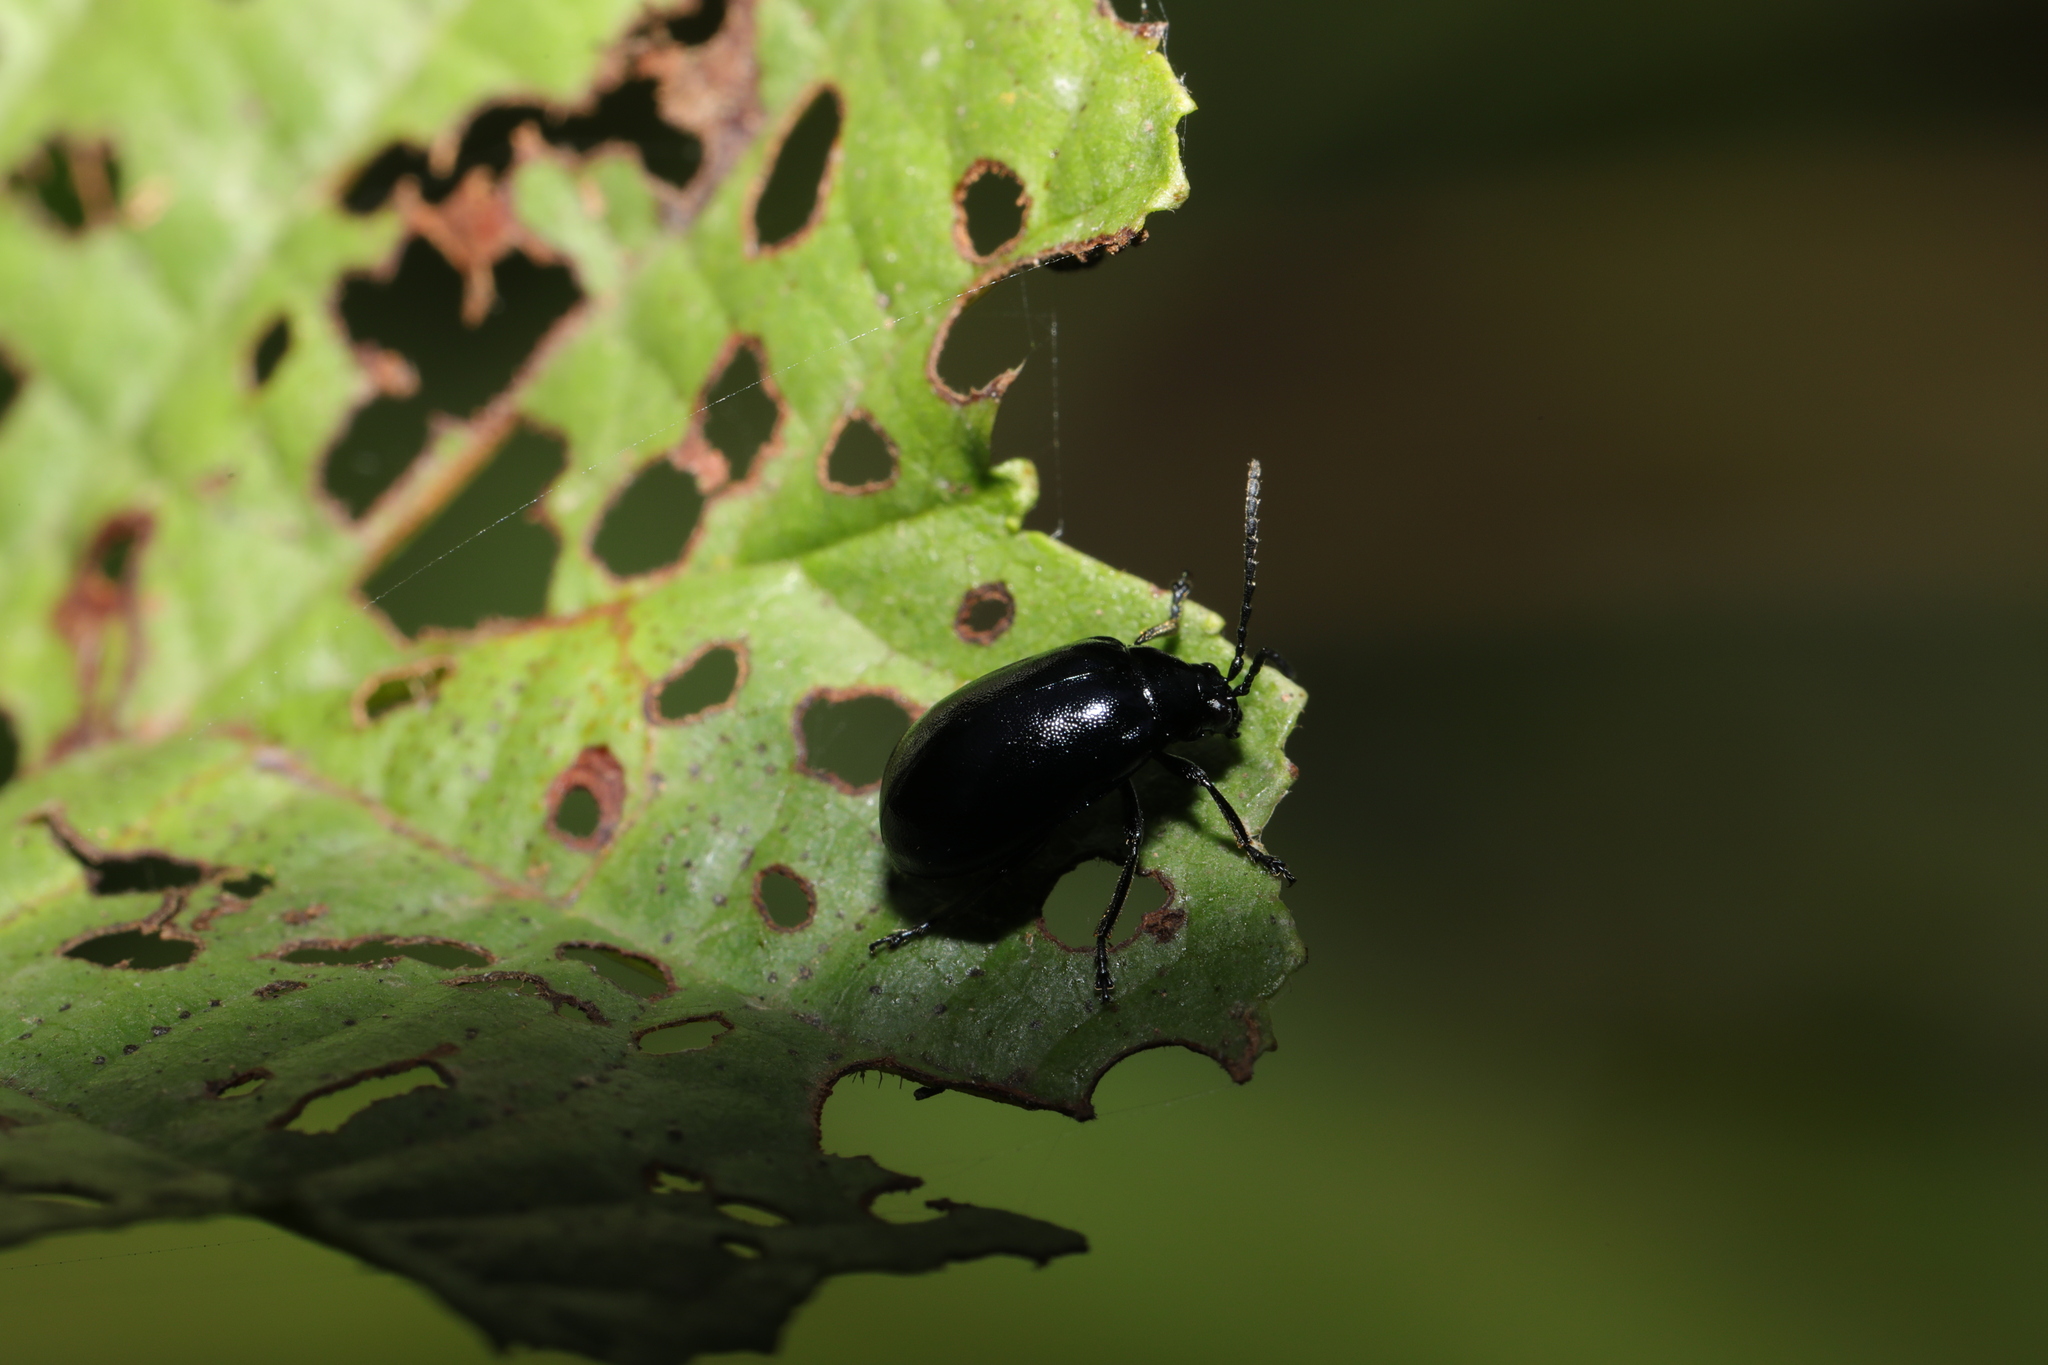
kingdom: Animalia
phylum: Arthropoda
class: Insecta
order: Coleoptera
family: Chrysomelidae
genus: Agelastica
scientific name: Agelastica alni
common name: Alder leaf beetle
